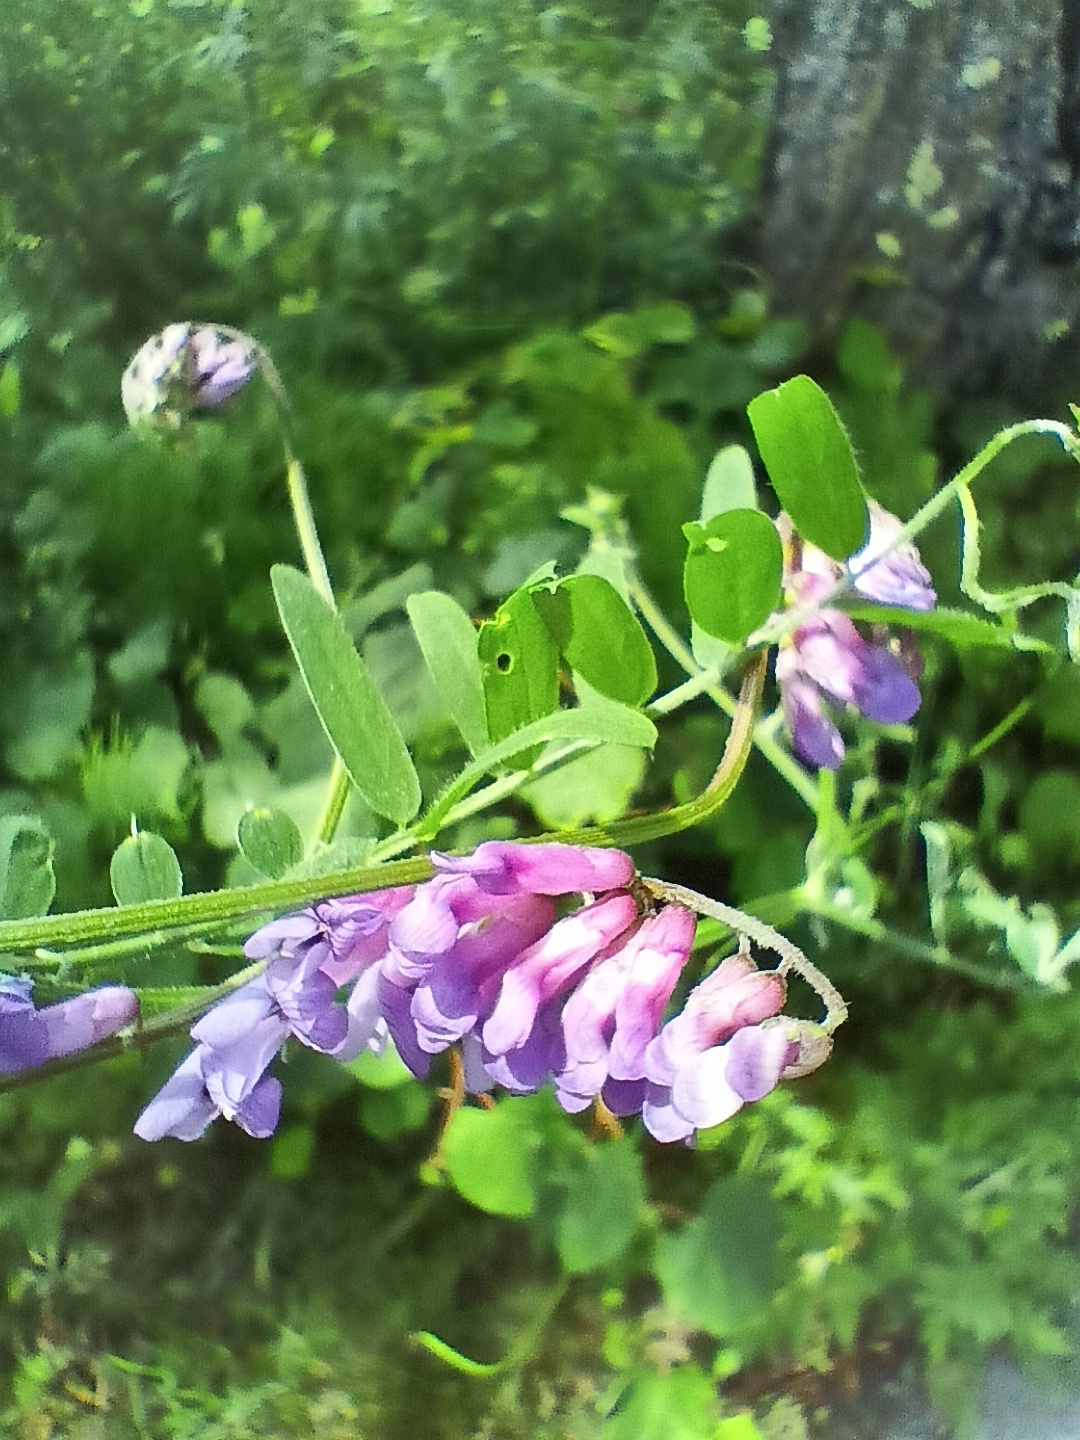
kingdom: Plantae
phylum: Tracheophyta
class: Magnoliopsida
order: Fabales
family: Fabaceae
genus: Vicia
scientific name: Vicia cracca
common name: Bird vetch
